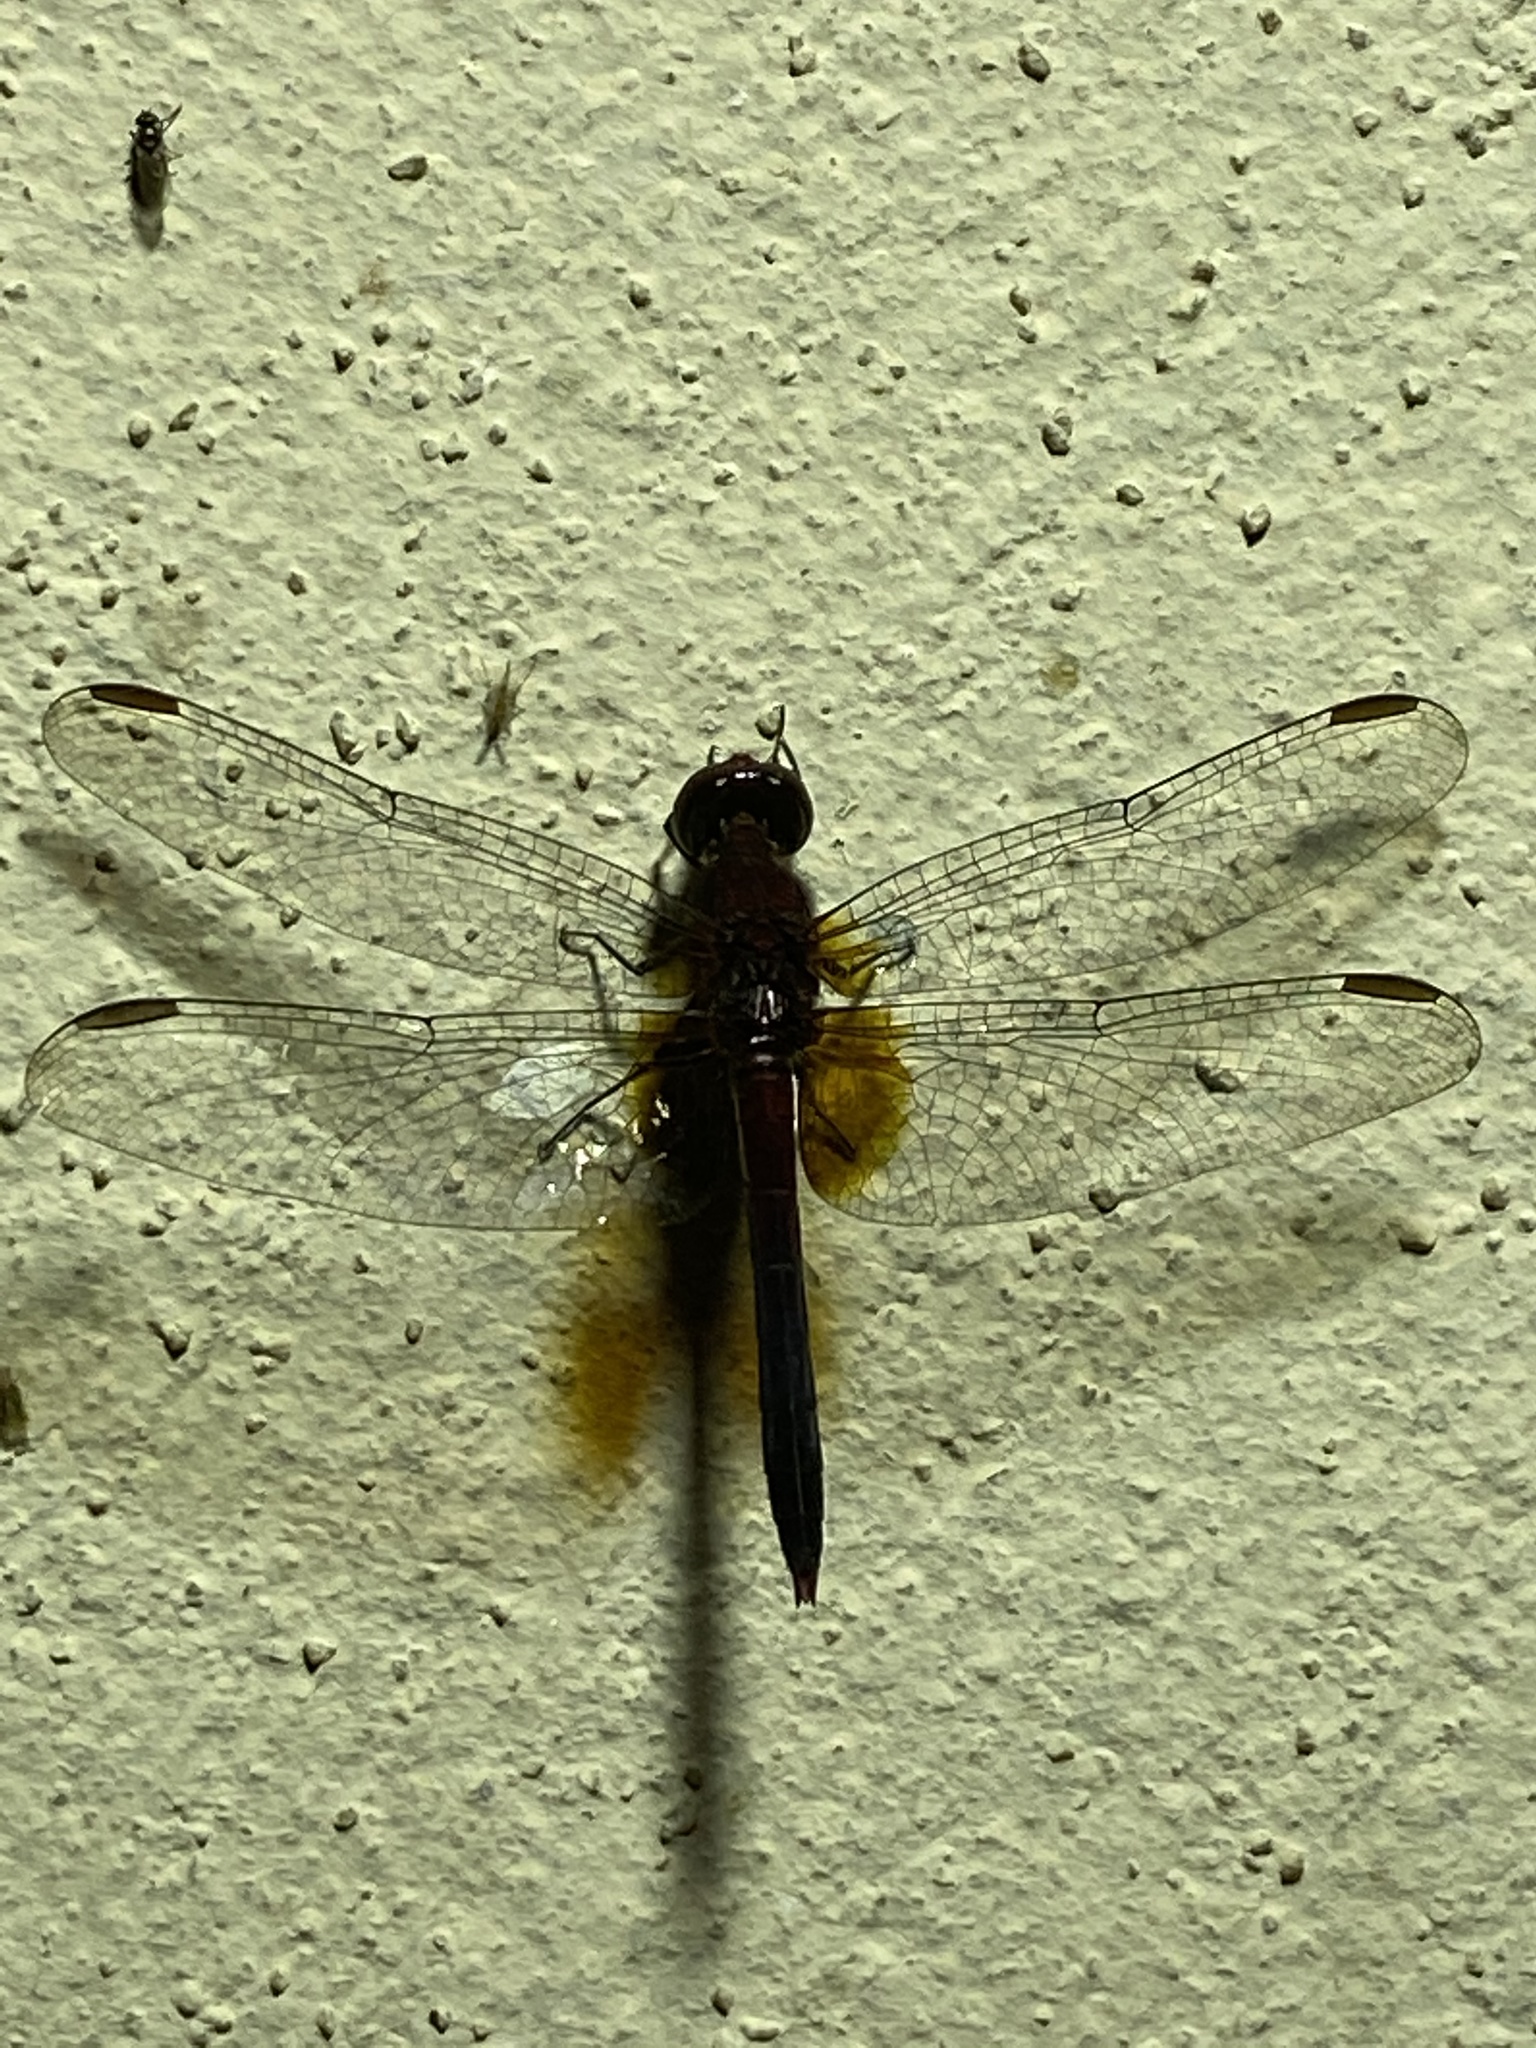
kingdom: Animalia
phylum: Arthropoda
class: Insecta
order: Odonata
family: Libellulidae
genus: Erythrodiplax
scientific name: Erythrodiplax fusca
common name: Red-faced dragonlet
